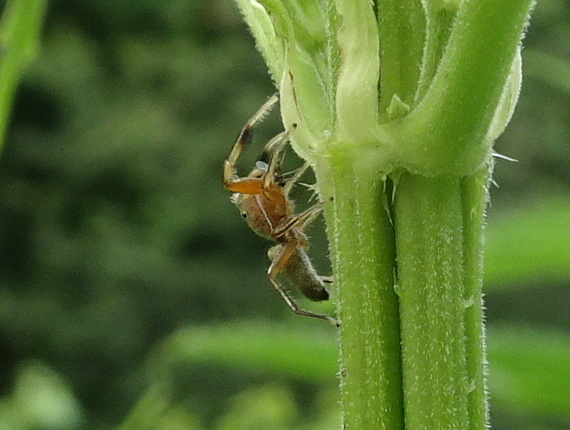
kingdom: Animalia
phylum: Arthropoda
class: Arachnida
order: Araneae
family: Salticidae
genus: Tutelina
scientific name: Tutelina elegans
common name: Thin-spined jumping spider
